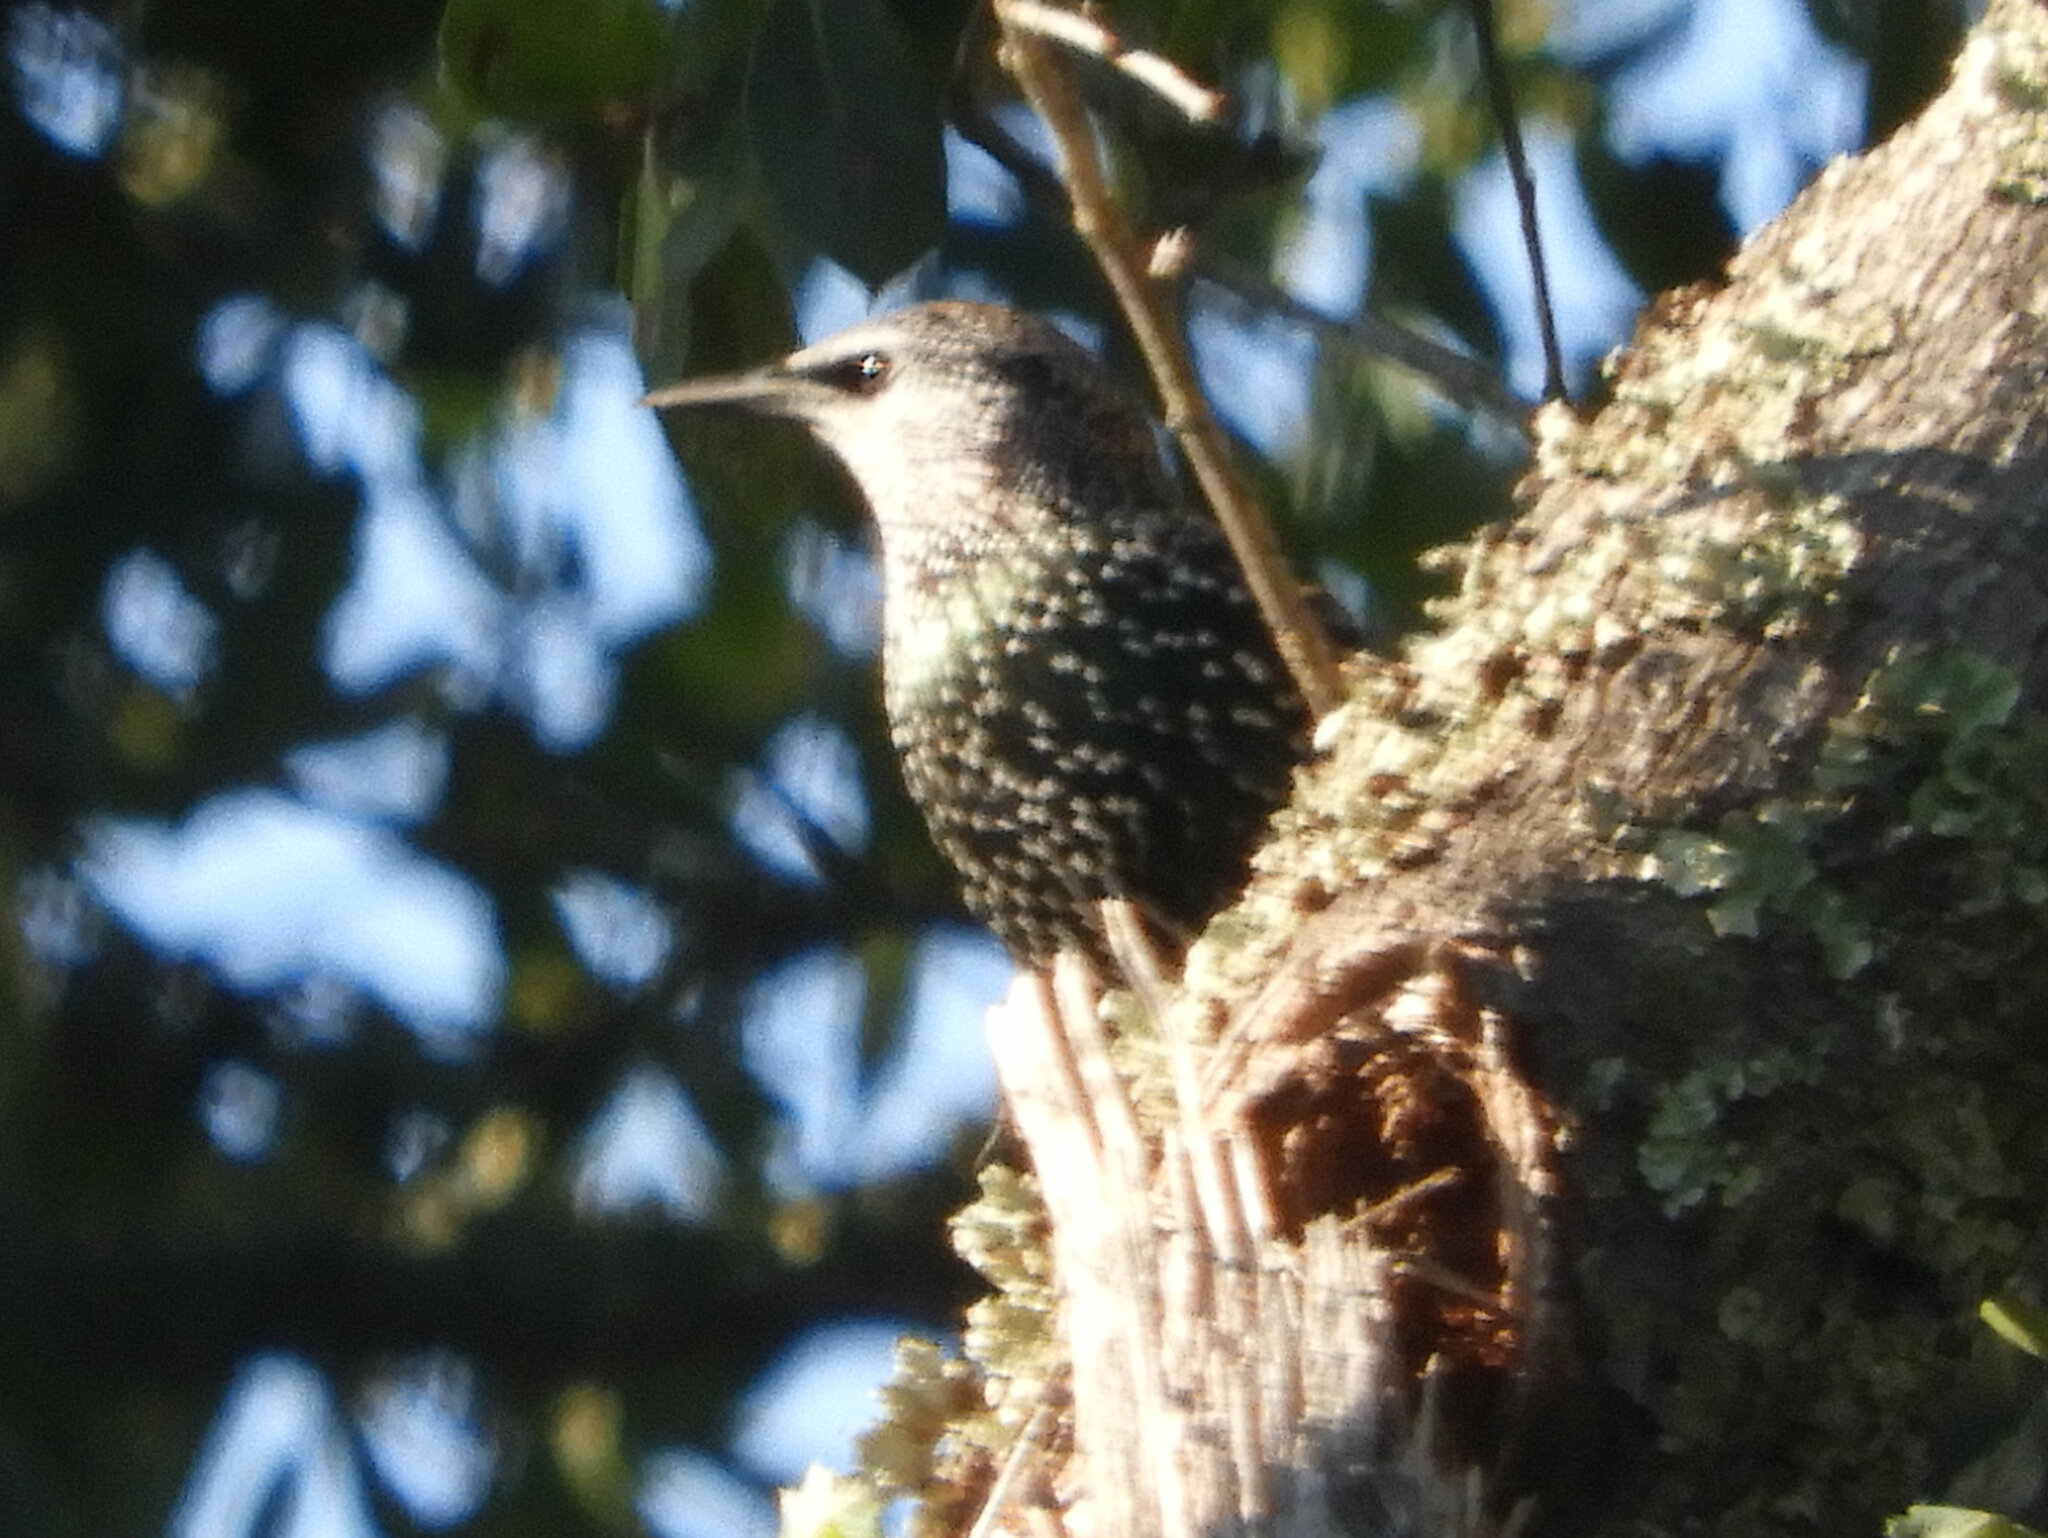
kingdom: Animalia
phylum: Chordata
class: Aves
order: Passeriformes
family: Sturnidae
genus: Sturnus
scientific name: Sturnus vulgaris
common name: Common starling
